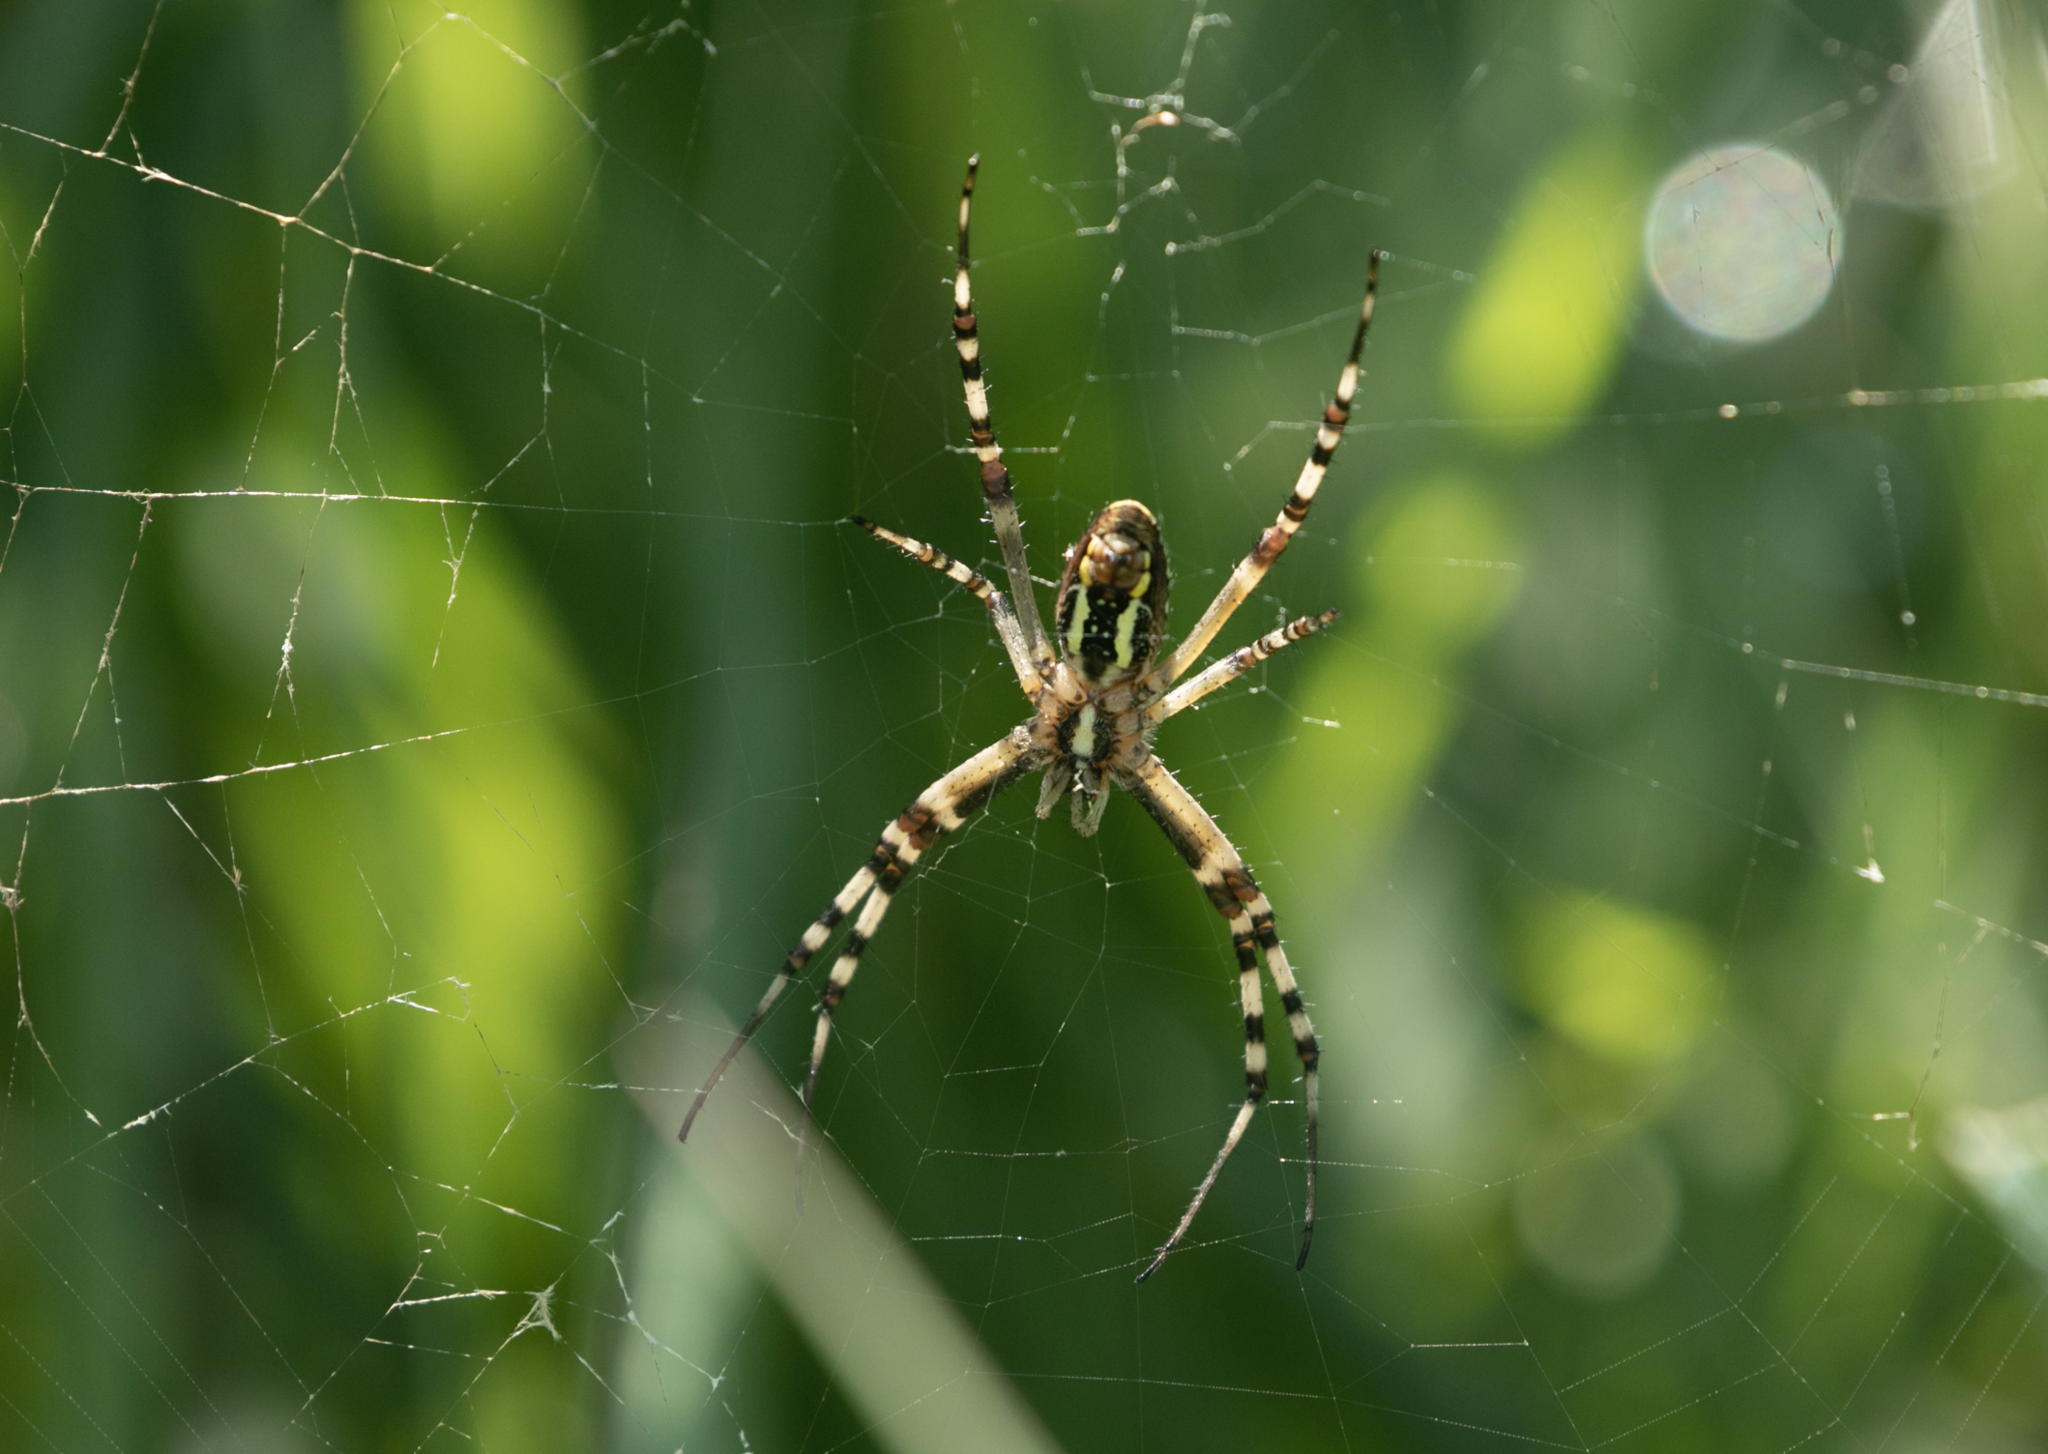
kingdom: Animalia
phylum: Arthropoda
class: Arachnida
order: Araneae
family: Araneidae
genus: Argiope
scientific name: Argiope bruennichi
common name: Wasp spider
